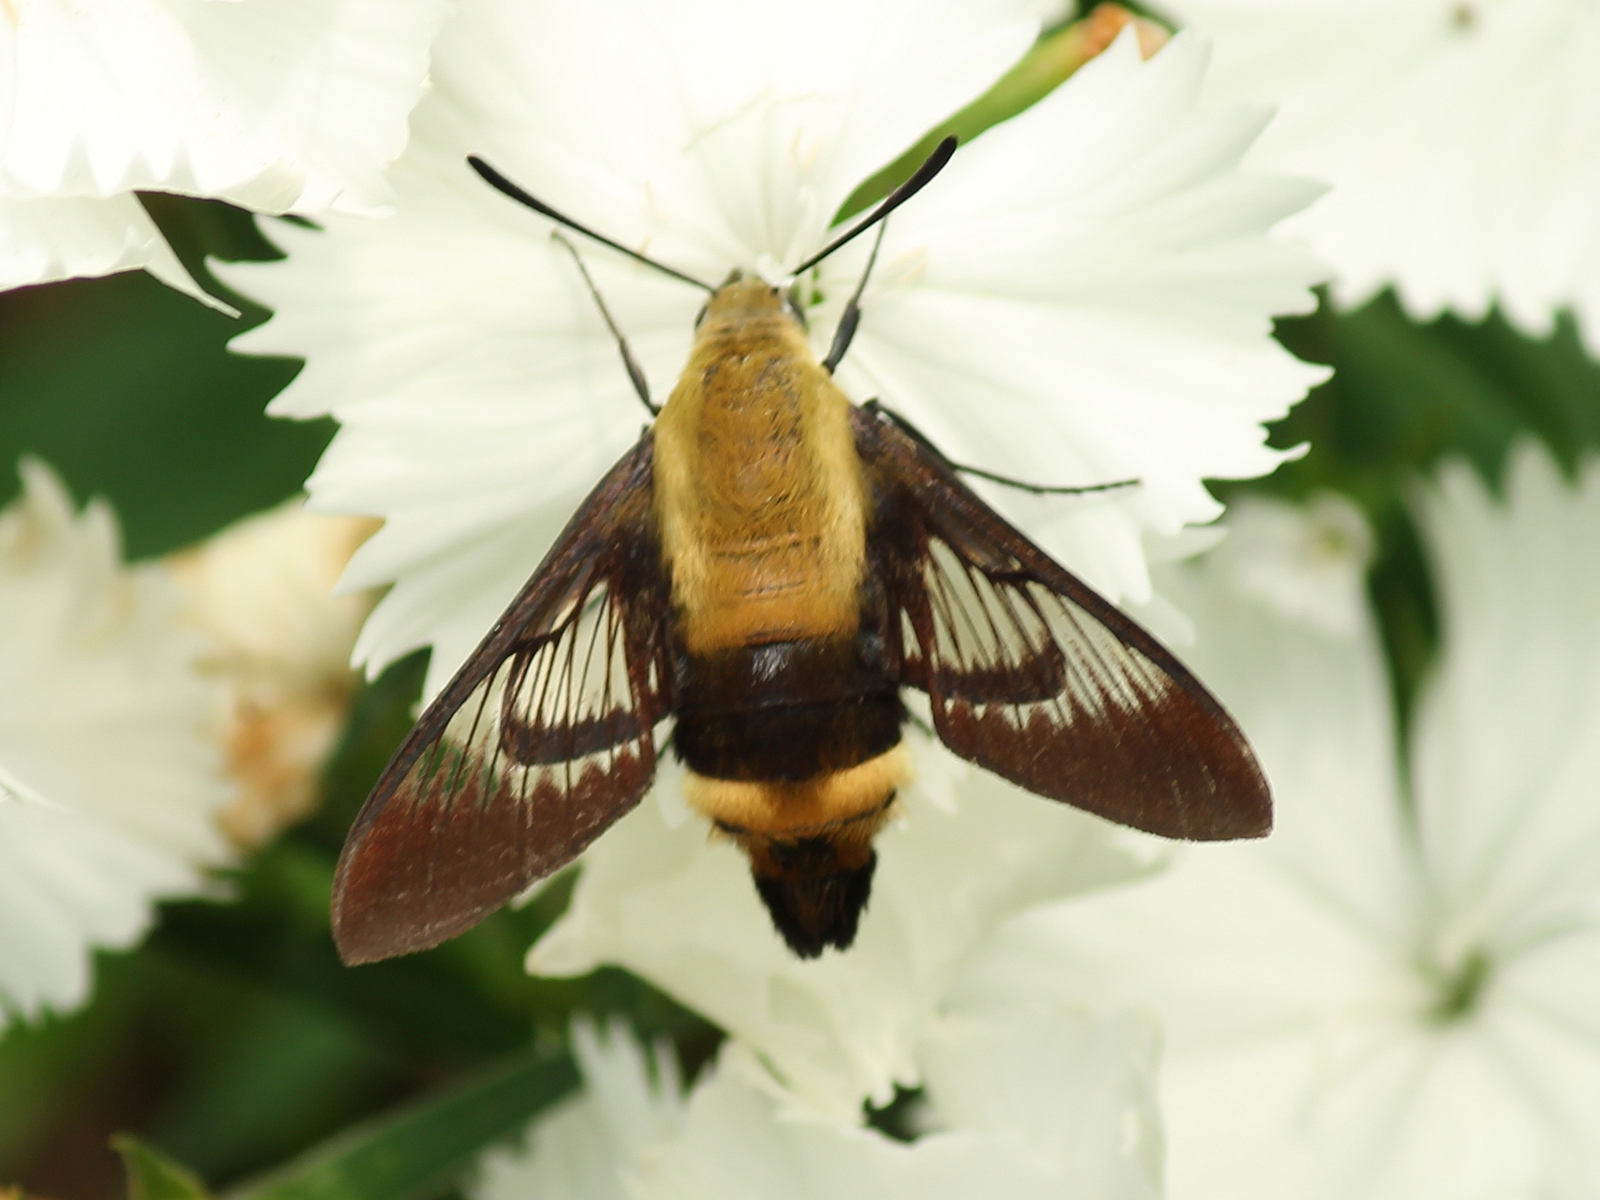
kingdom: Animalia
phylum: Arthropoda
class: Insecta
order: Lepidoptera
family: Sphingidae
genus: Hemaris
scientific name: Hemaris diffinis
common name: Bumblebee moth
